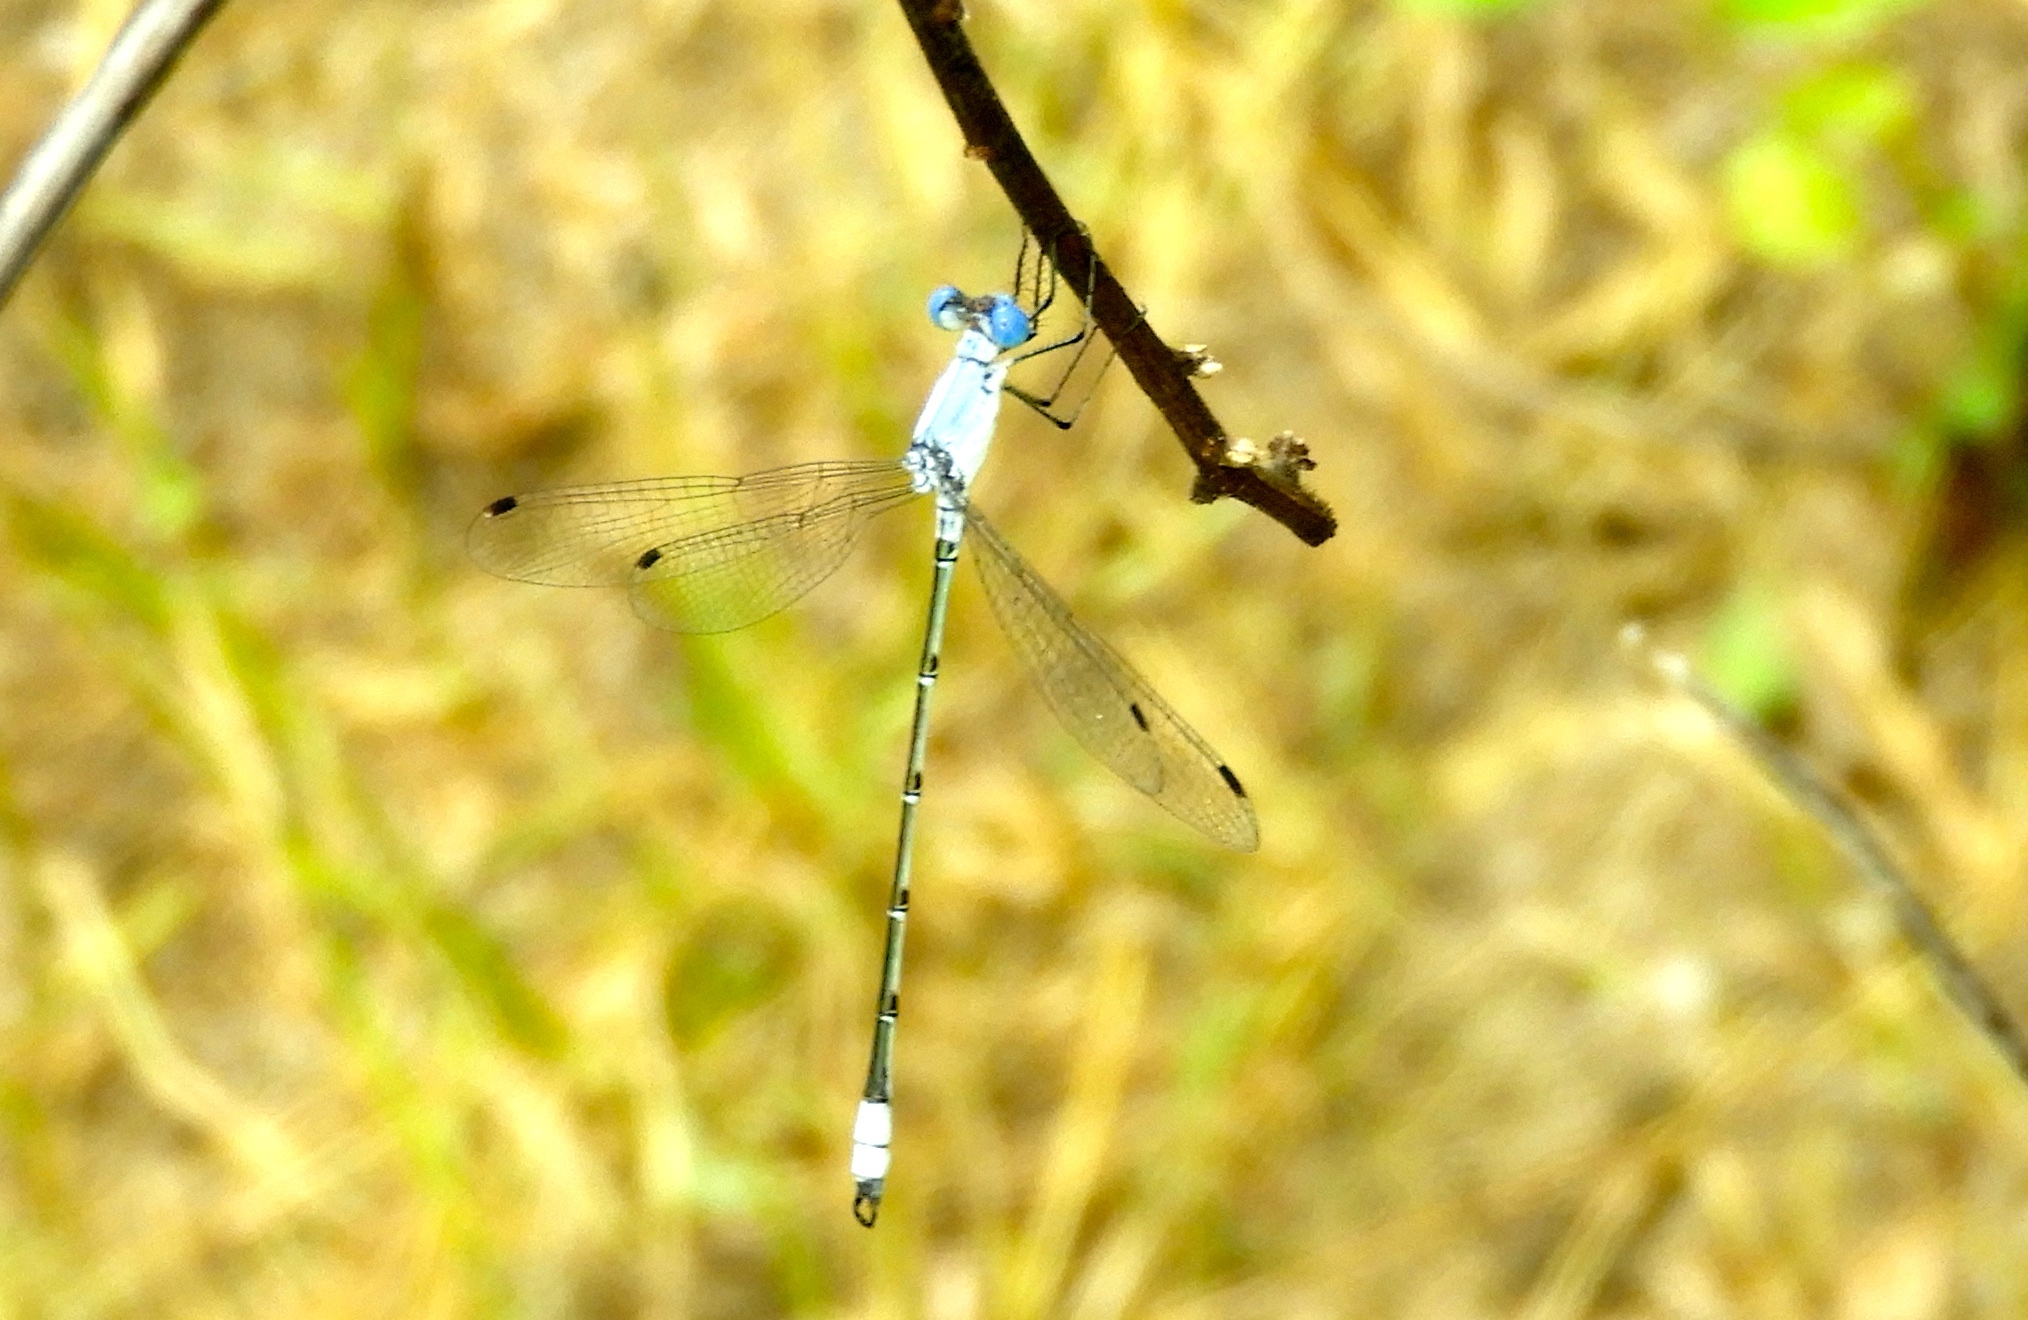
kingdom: Animalia
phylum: Arthropoda
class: Insecta
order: Odonata
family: Lestidae
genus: Lestes
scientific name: Lestes sigma
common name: Chalky spreadwing
